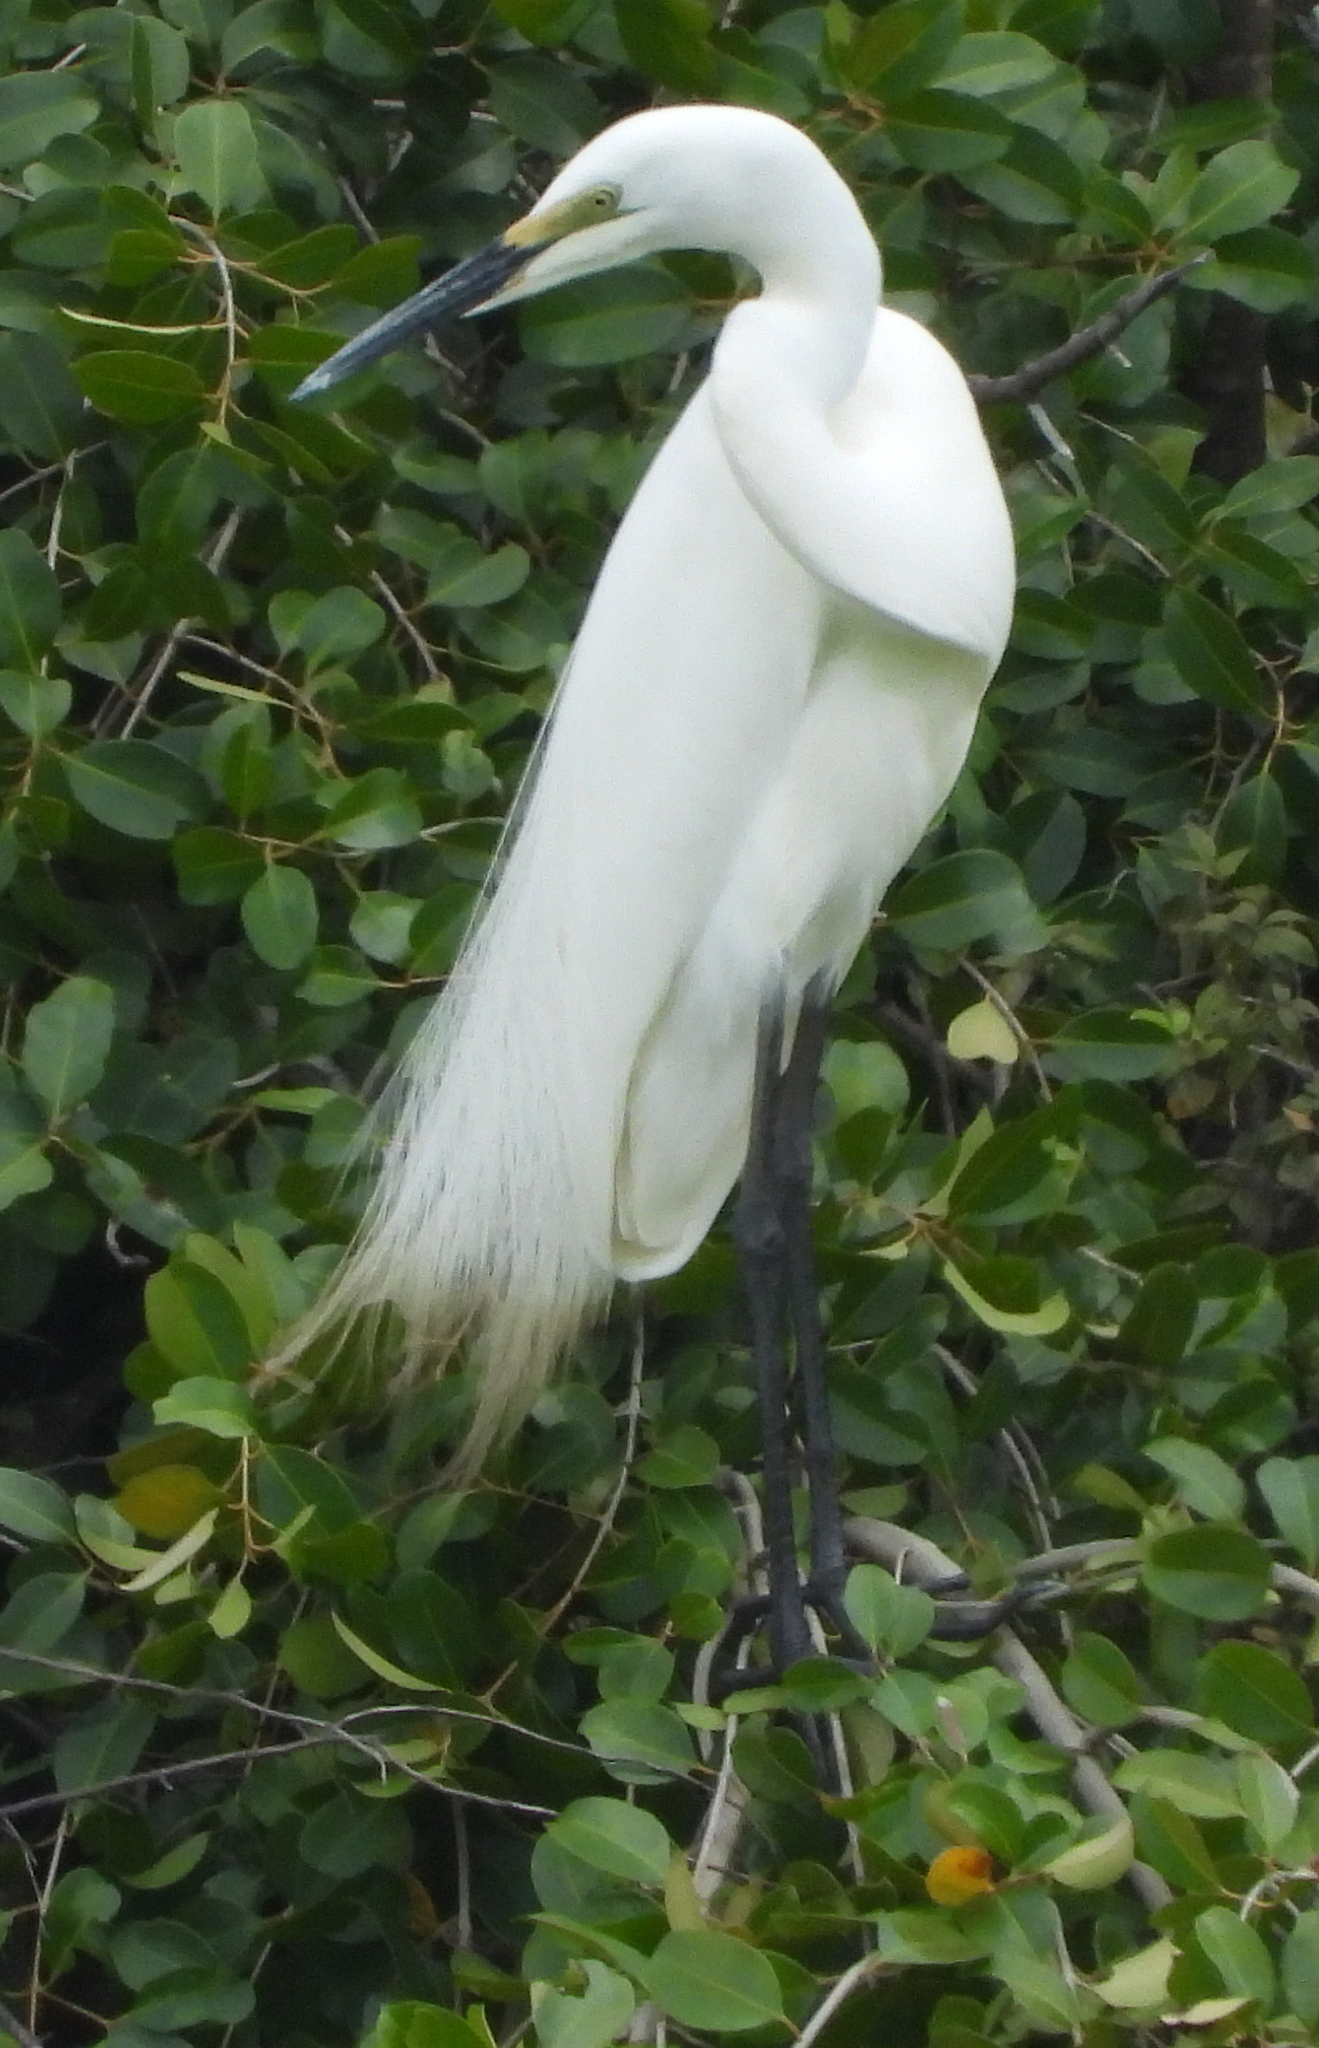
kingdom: Animalia
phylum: Chordata
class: Aves
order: Pelecaniformes
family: Ardeidae
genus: Ardea
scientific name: Ardea alba
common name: Great egret
